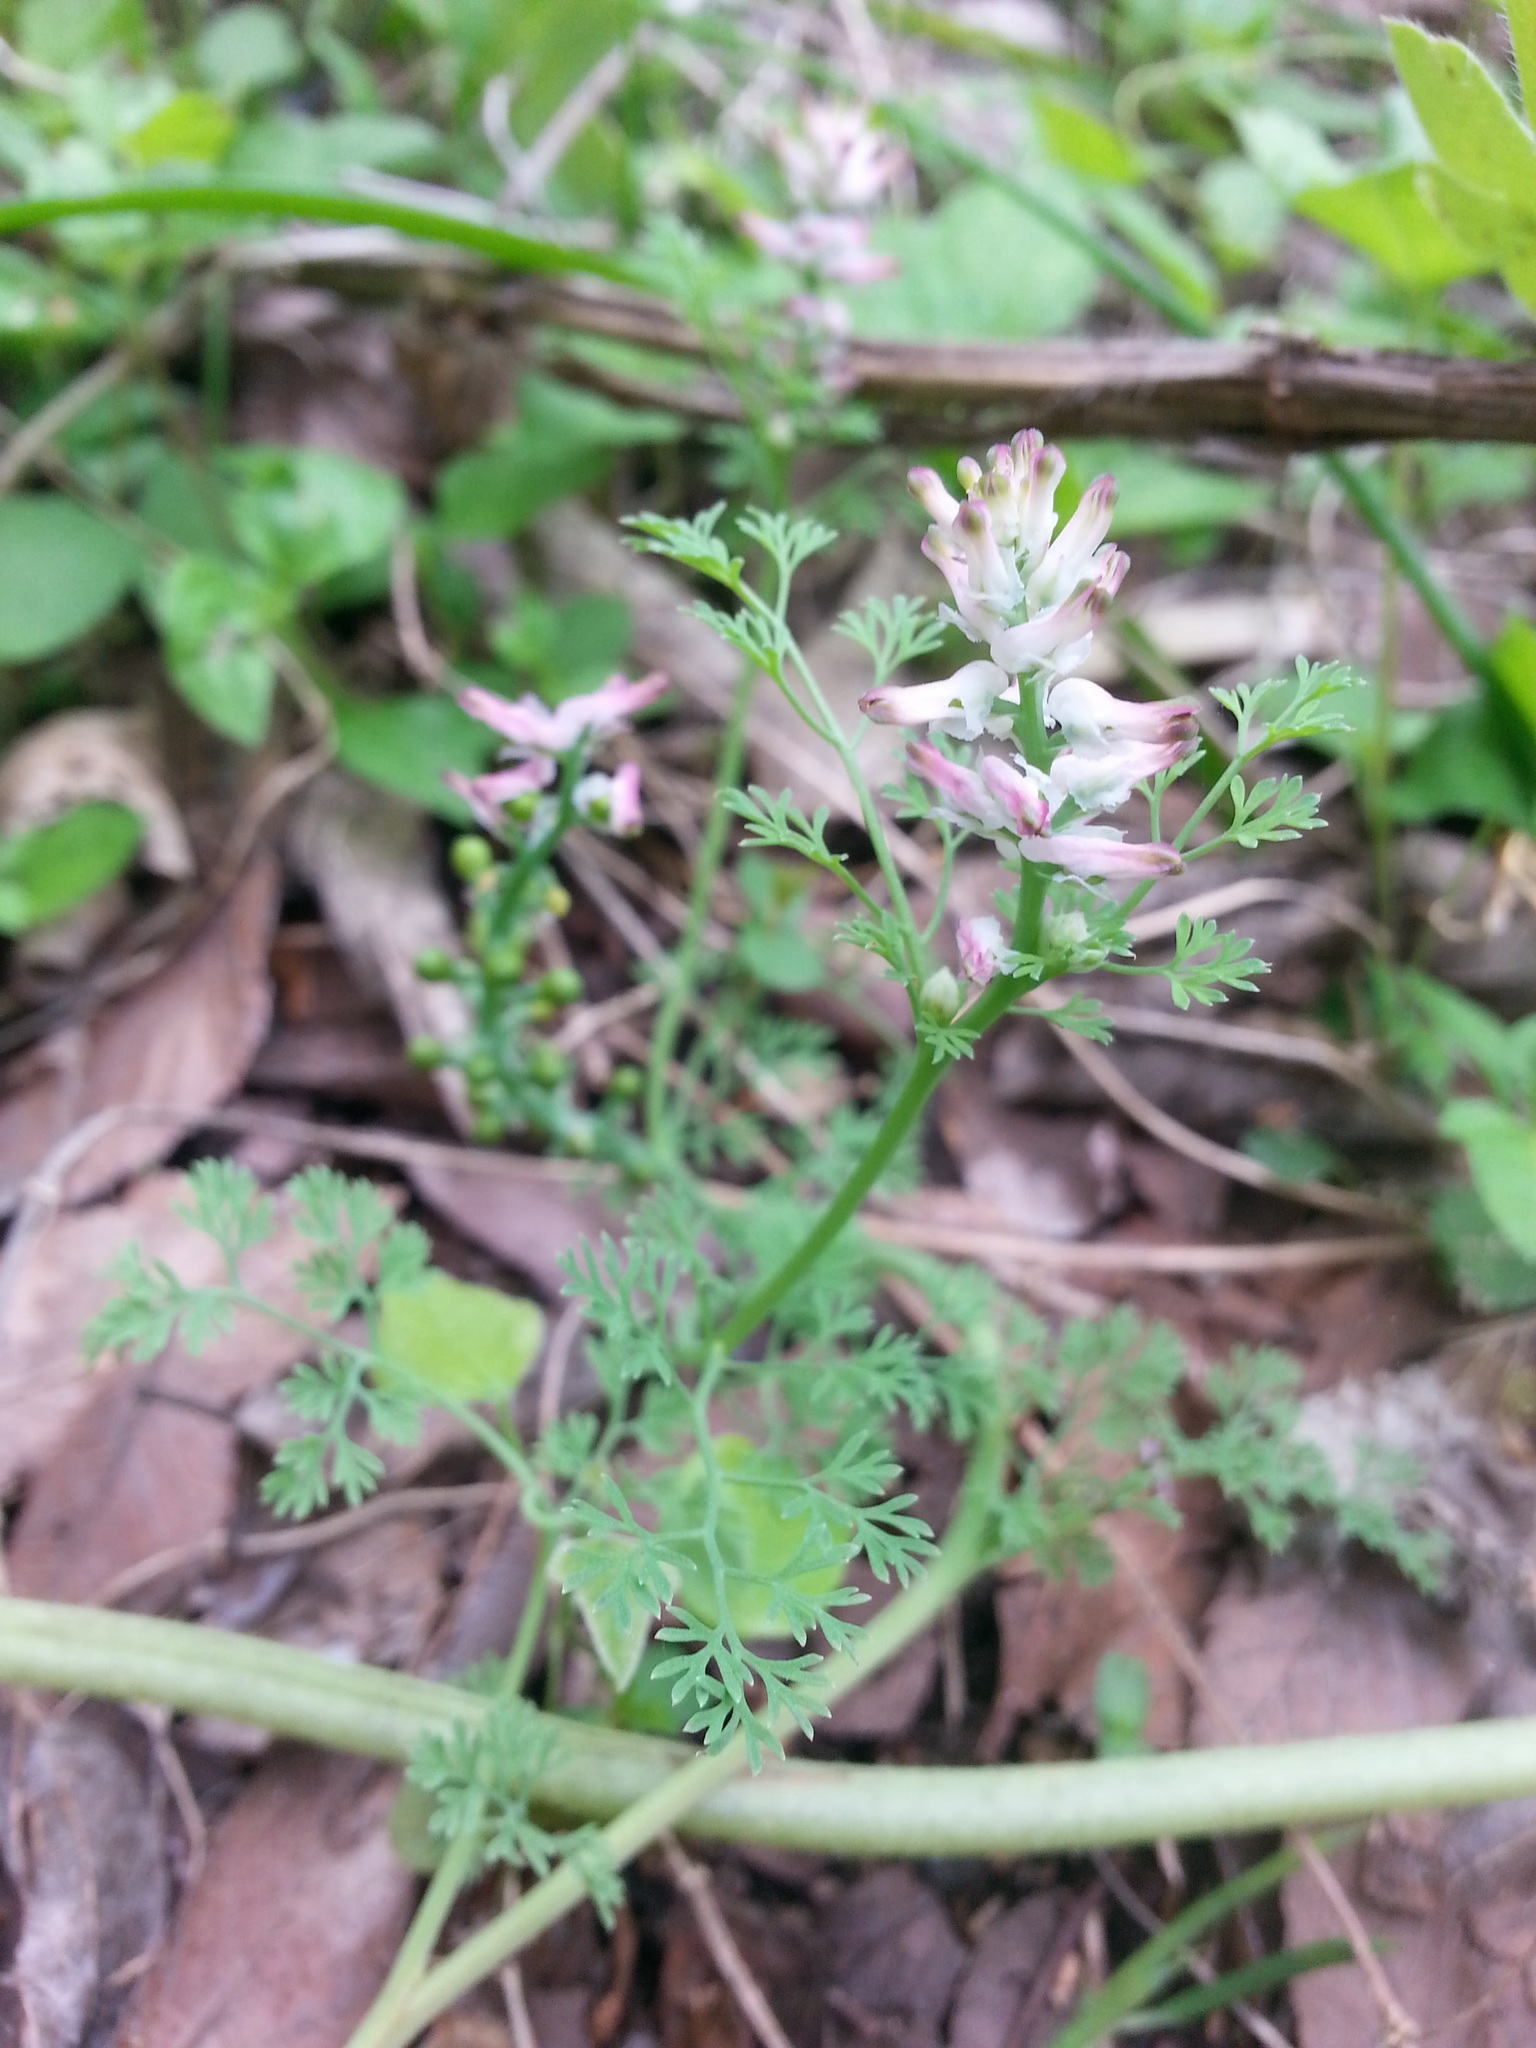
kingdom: Plantae
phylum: Tracheophyta
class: Magnoliopsida
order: Ranunculales
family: Papaveraceae
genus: Fumaria
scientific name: Fumaria densiflora
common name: Dense-flowered fumitory
